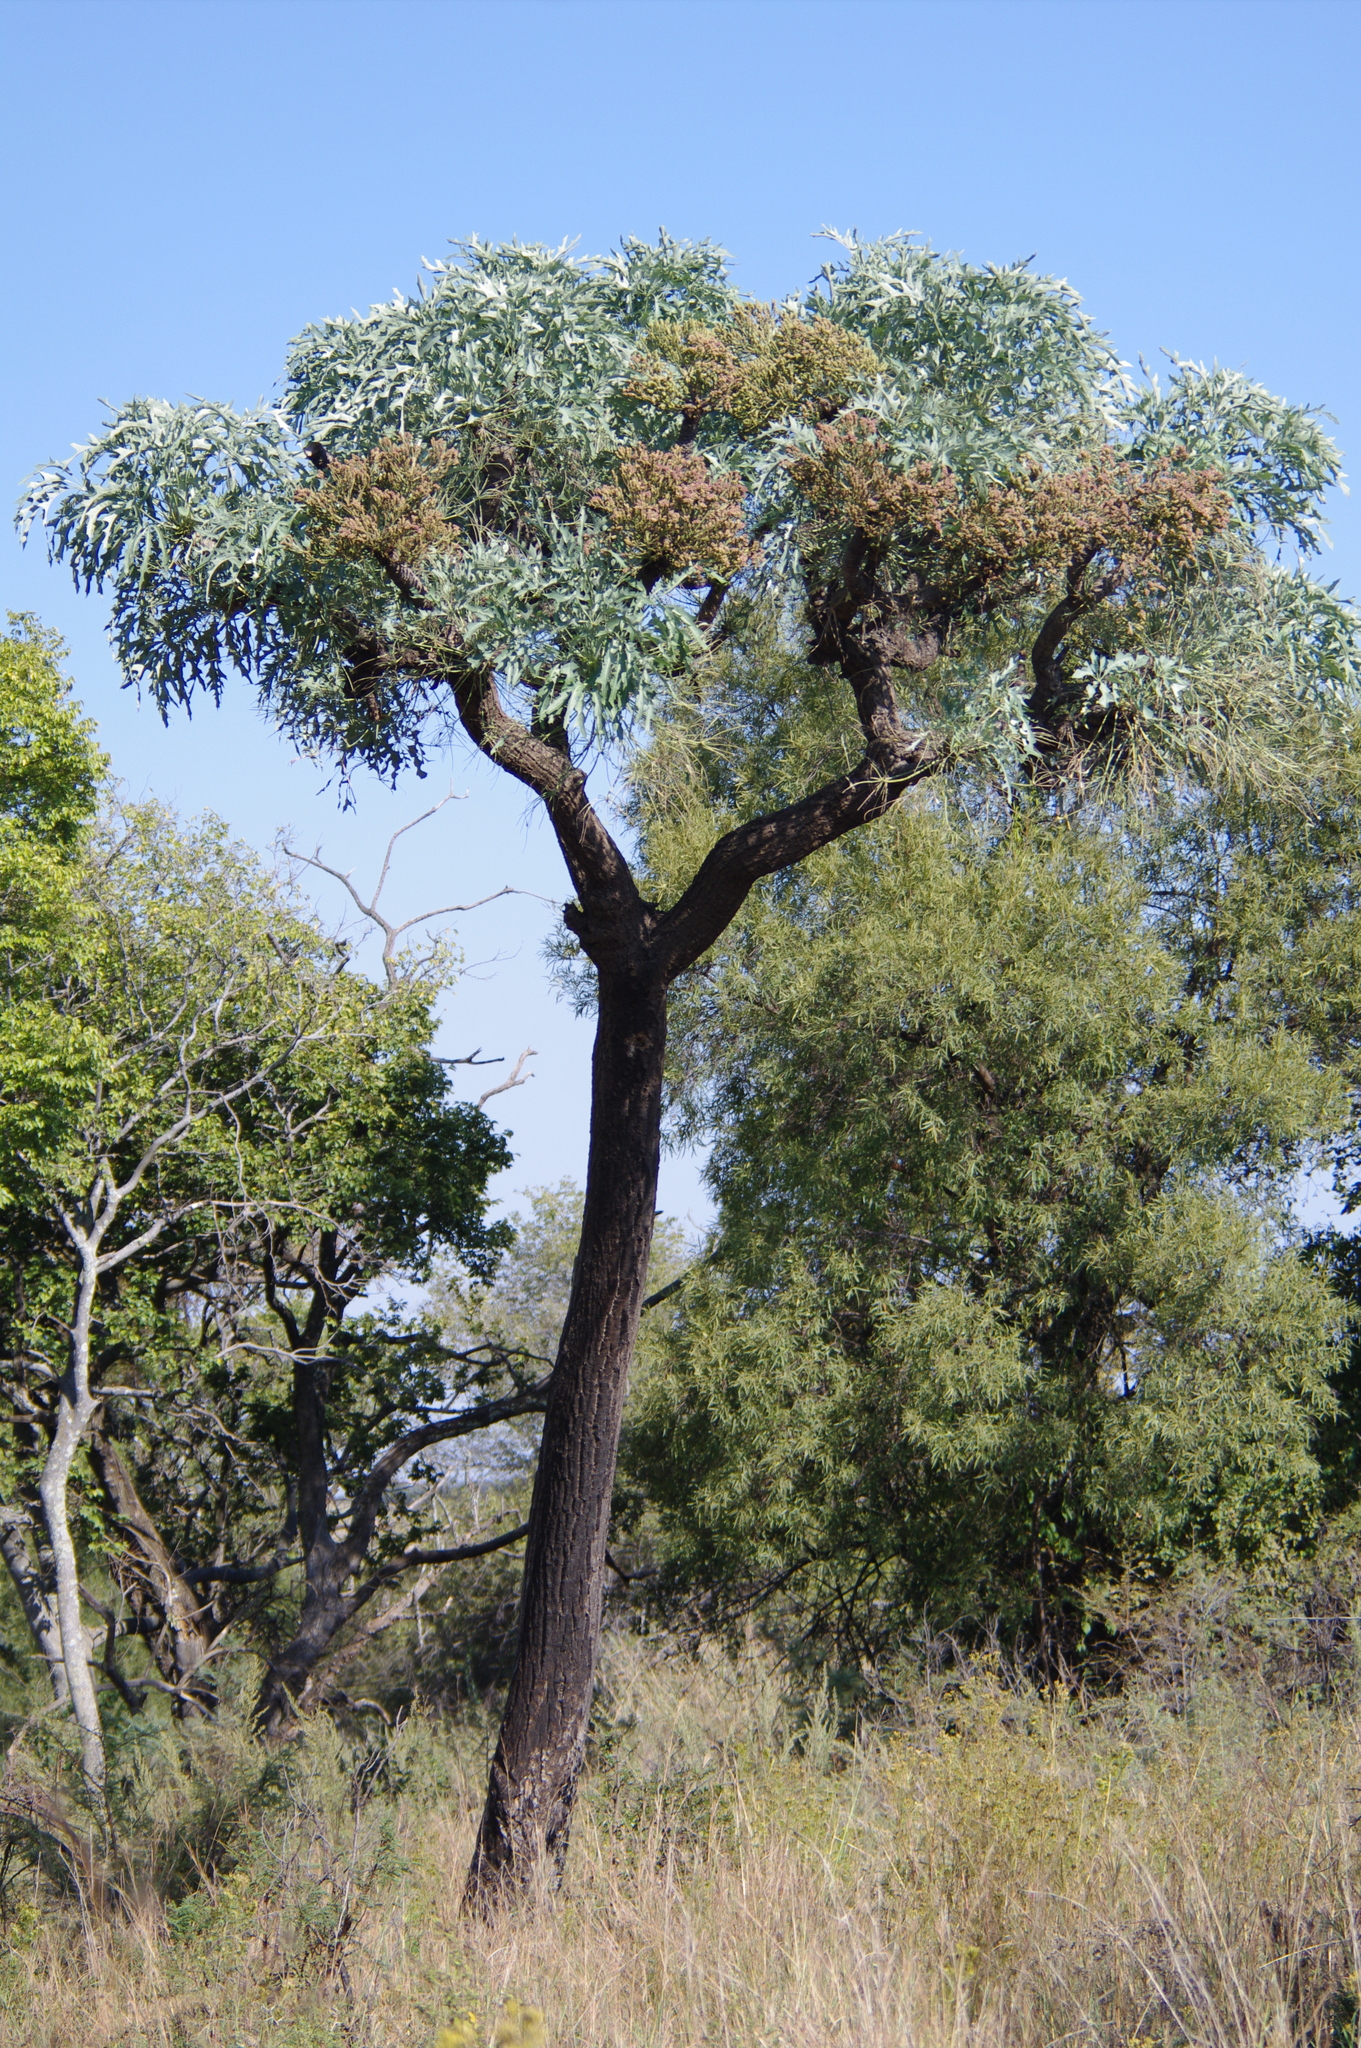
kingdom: Plantae
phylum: Tracheophyta
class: Magnoliopsida
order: Apiales
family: Araliaceae
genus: Cussonia
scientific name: Cussonia paniculata
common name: Cabbagetree
